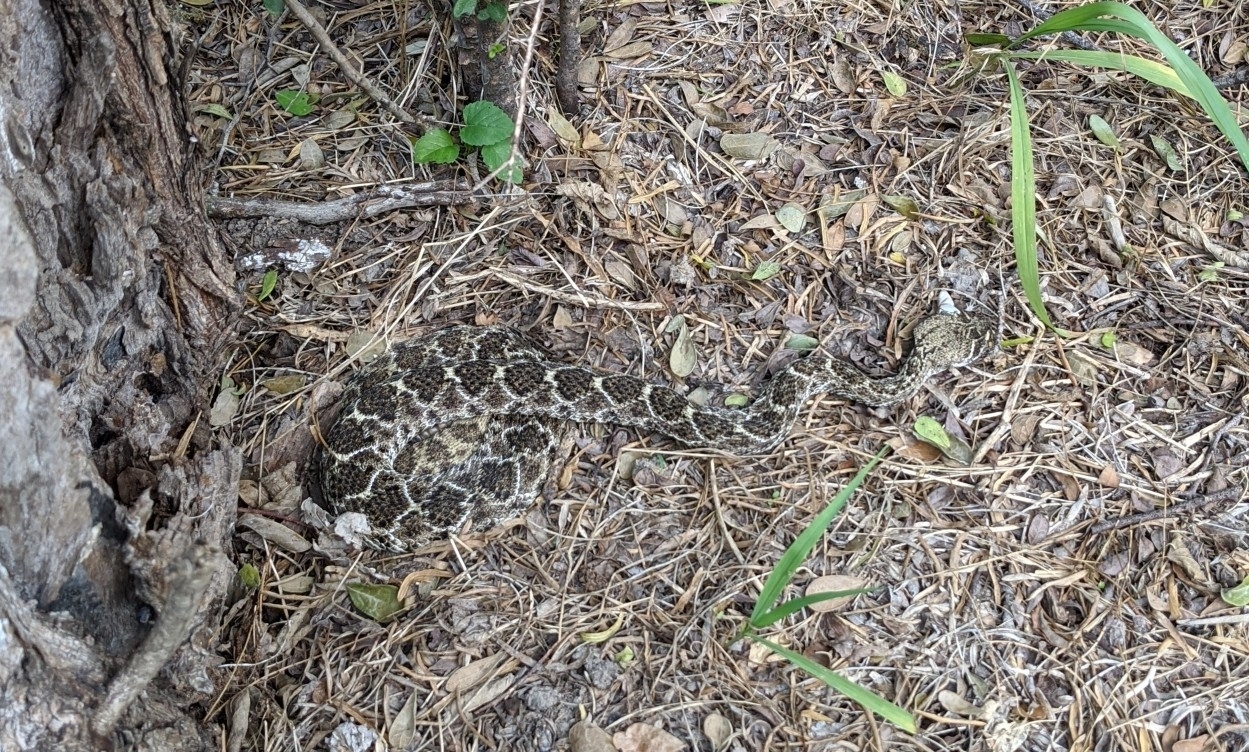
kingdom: Animalia
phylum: Chordata
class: Squamata
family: Viperidae
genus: Crotalus
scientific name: Crotalus atrox
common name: Western diamond-backed rattlesnake
